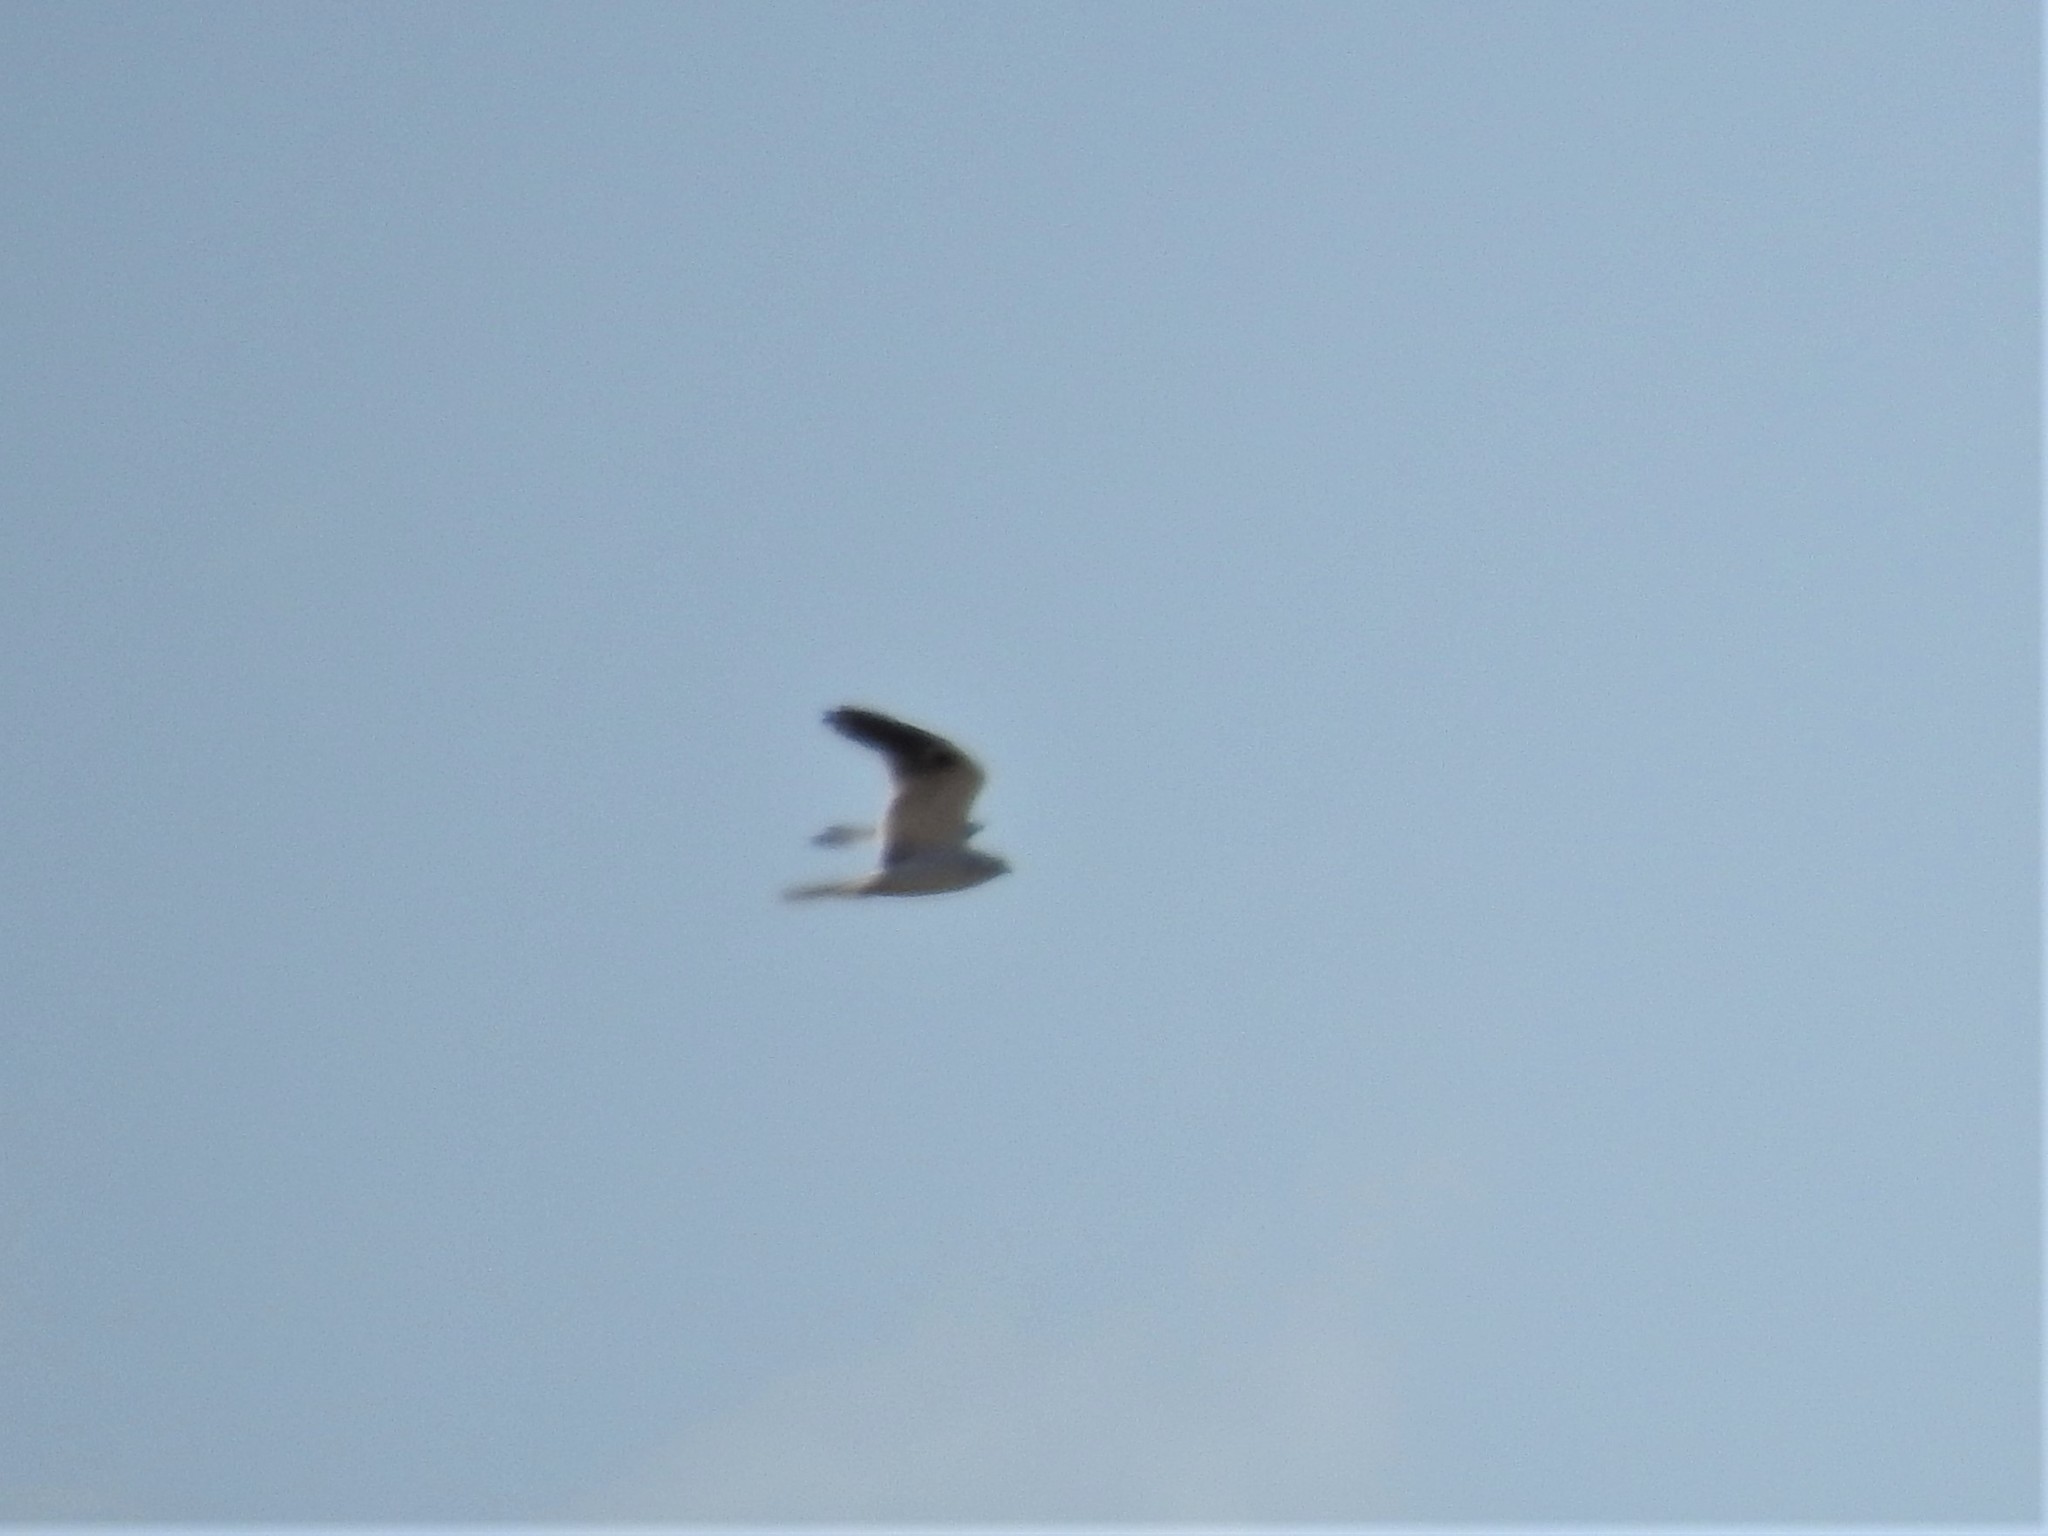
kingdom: Animalia
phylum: Chordata
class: Aves
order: Accipitriformes
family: Accipitridae
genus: Elanus
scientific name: Elanus leucurus
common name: White-tailed kite
